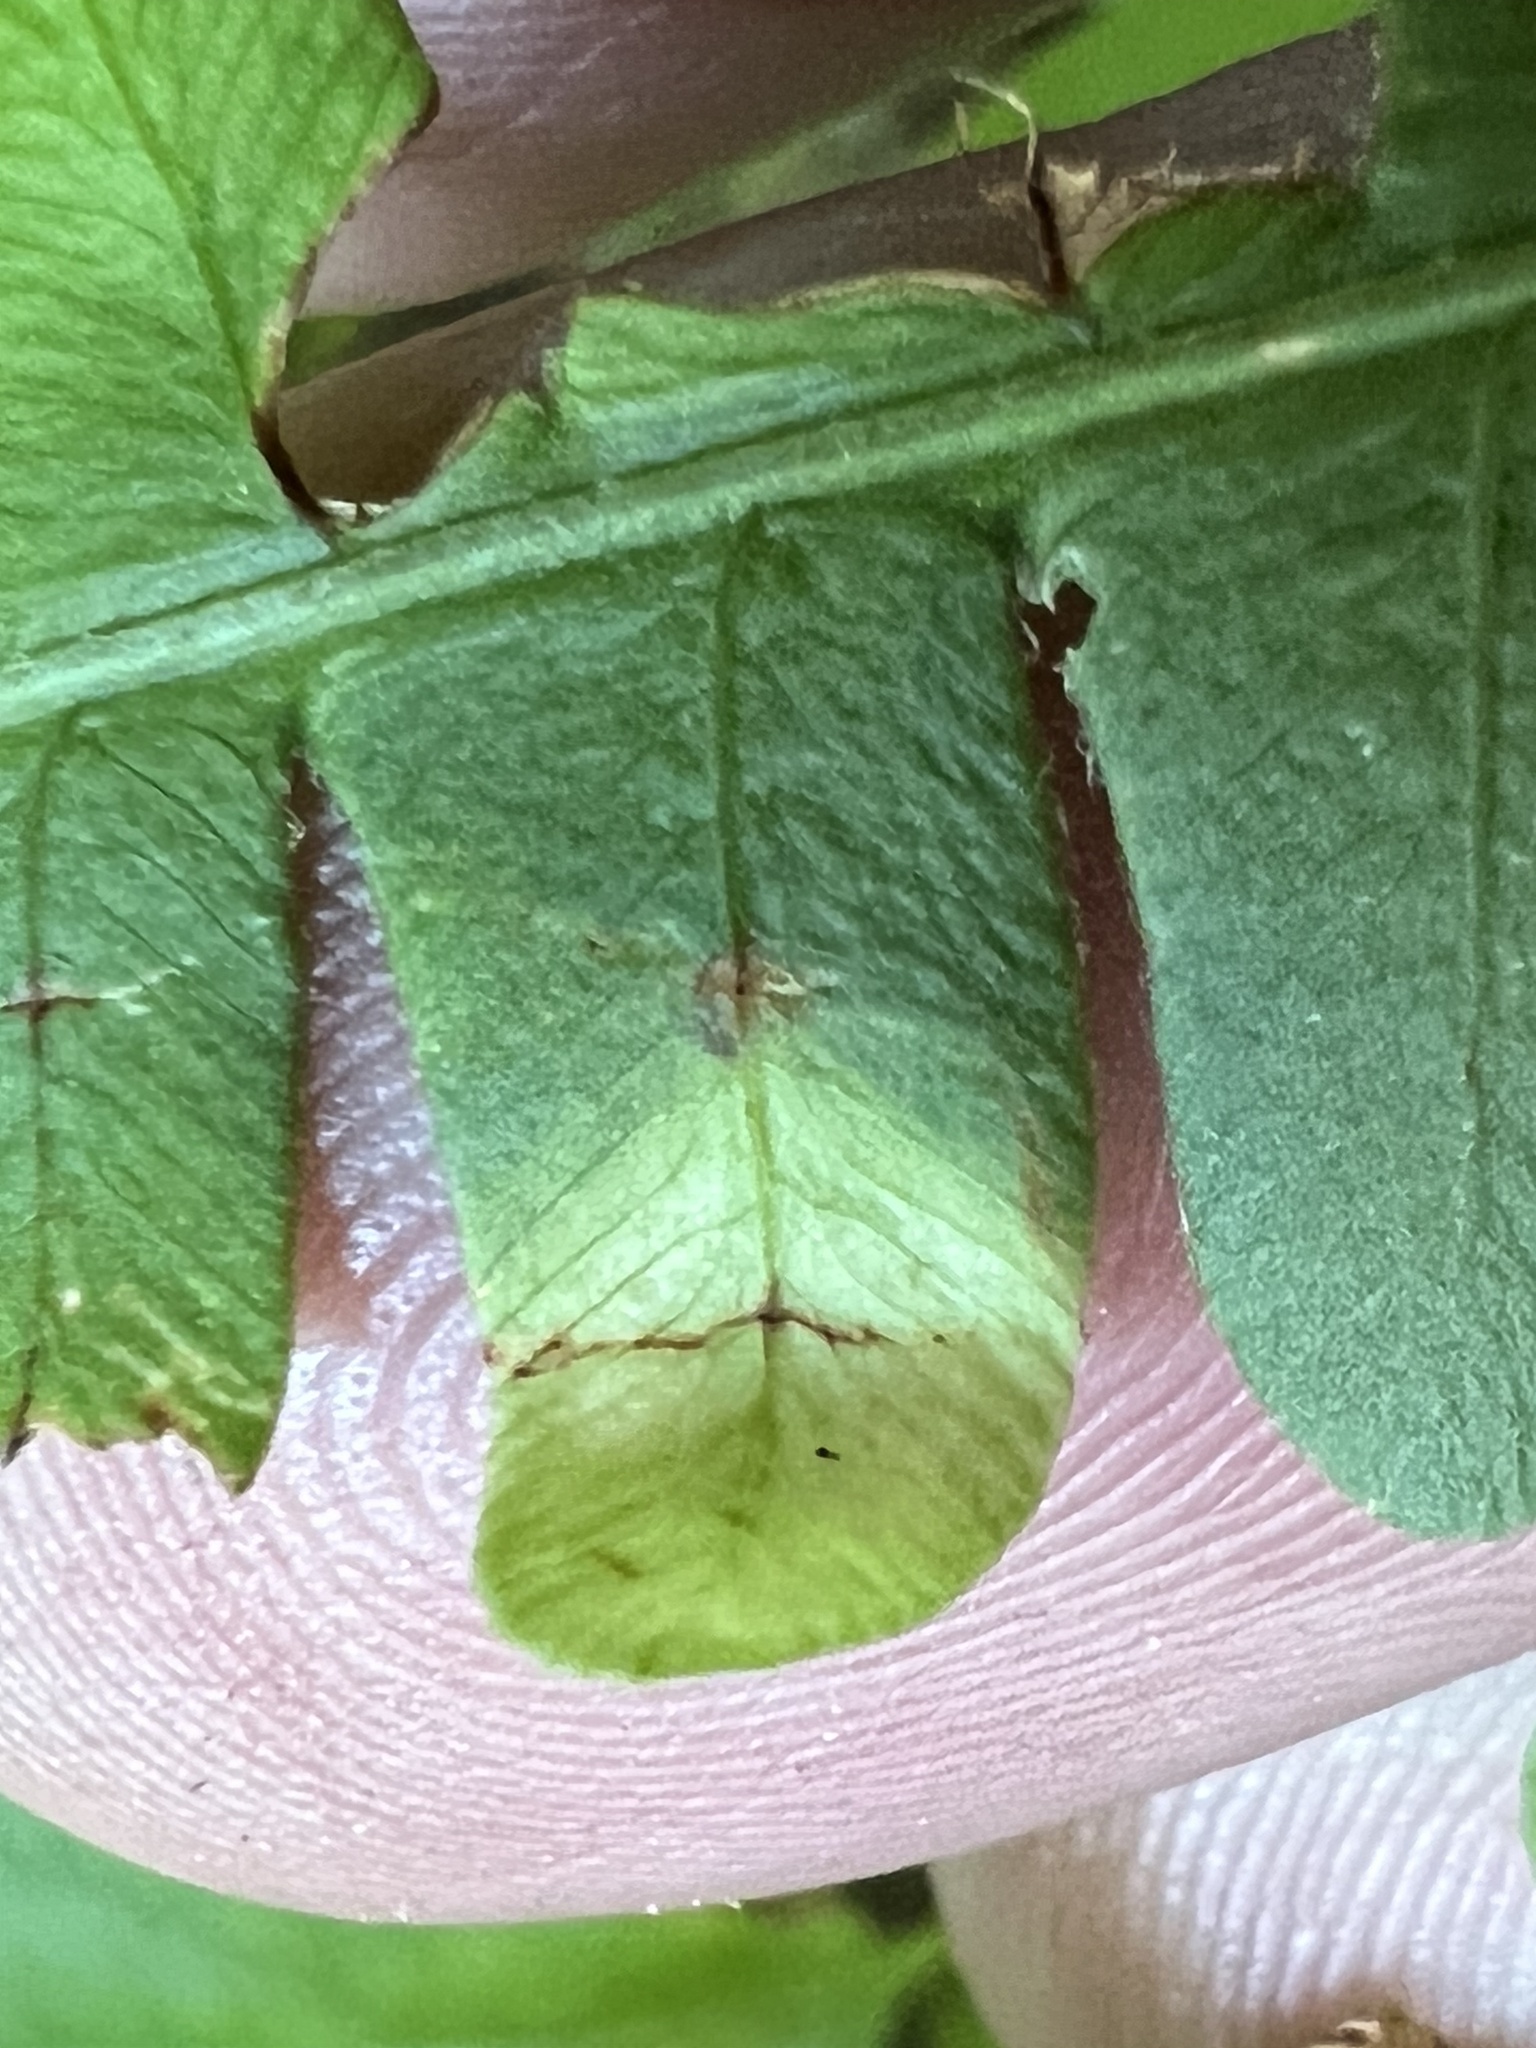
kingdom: Fungi
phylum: Basidiomycota
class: Mixiomycetes
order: Mixiales
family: Mixiaceae
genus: Mixia
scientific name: Mixia osmundae
